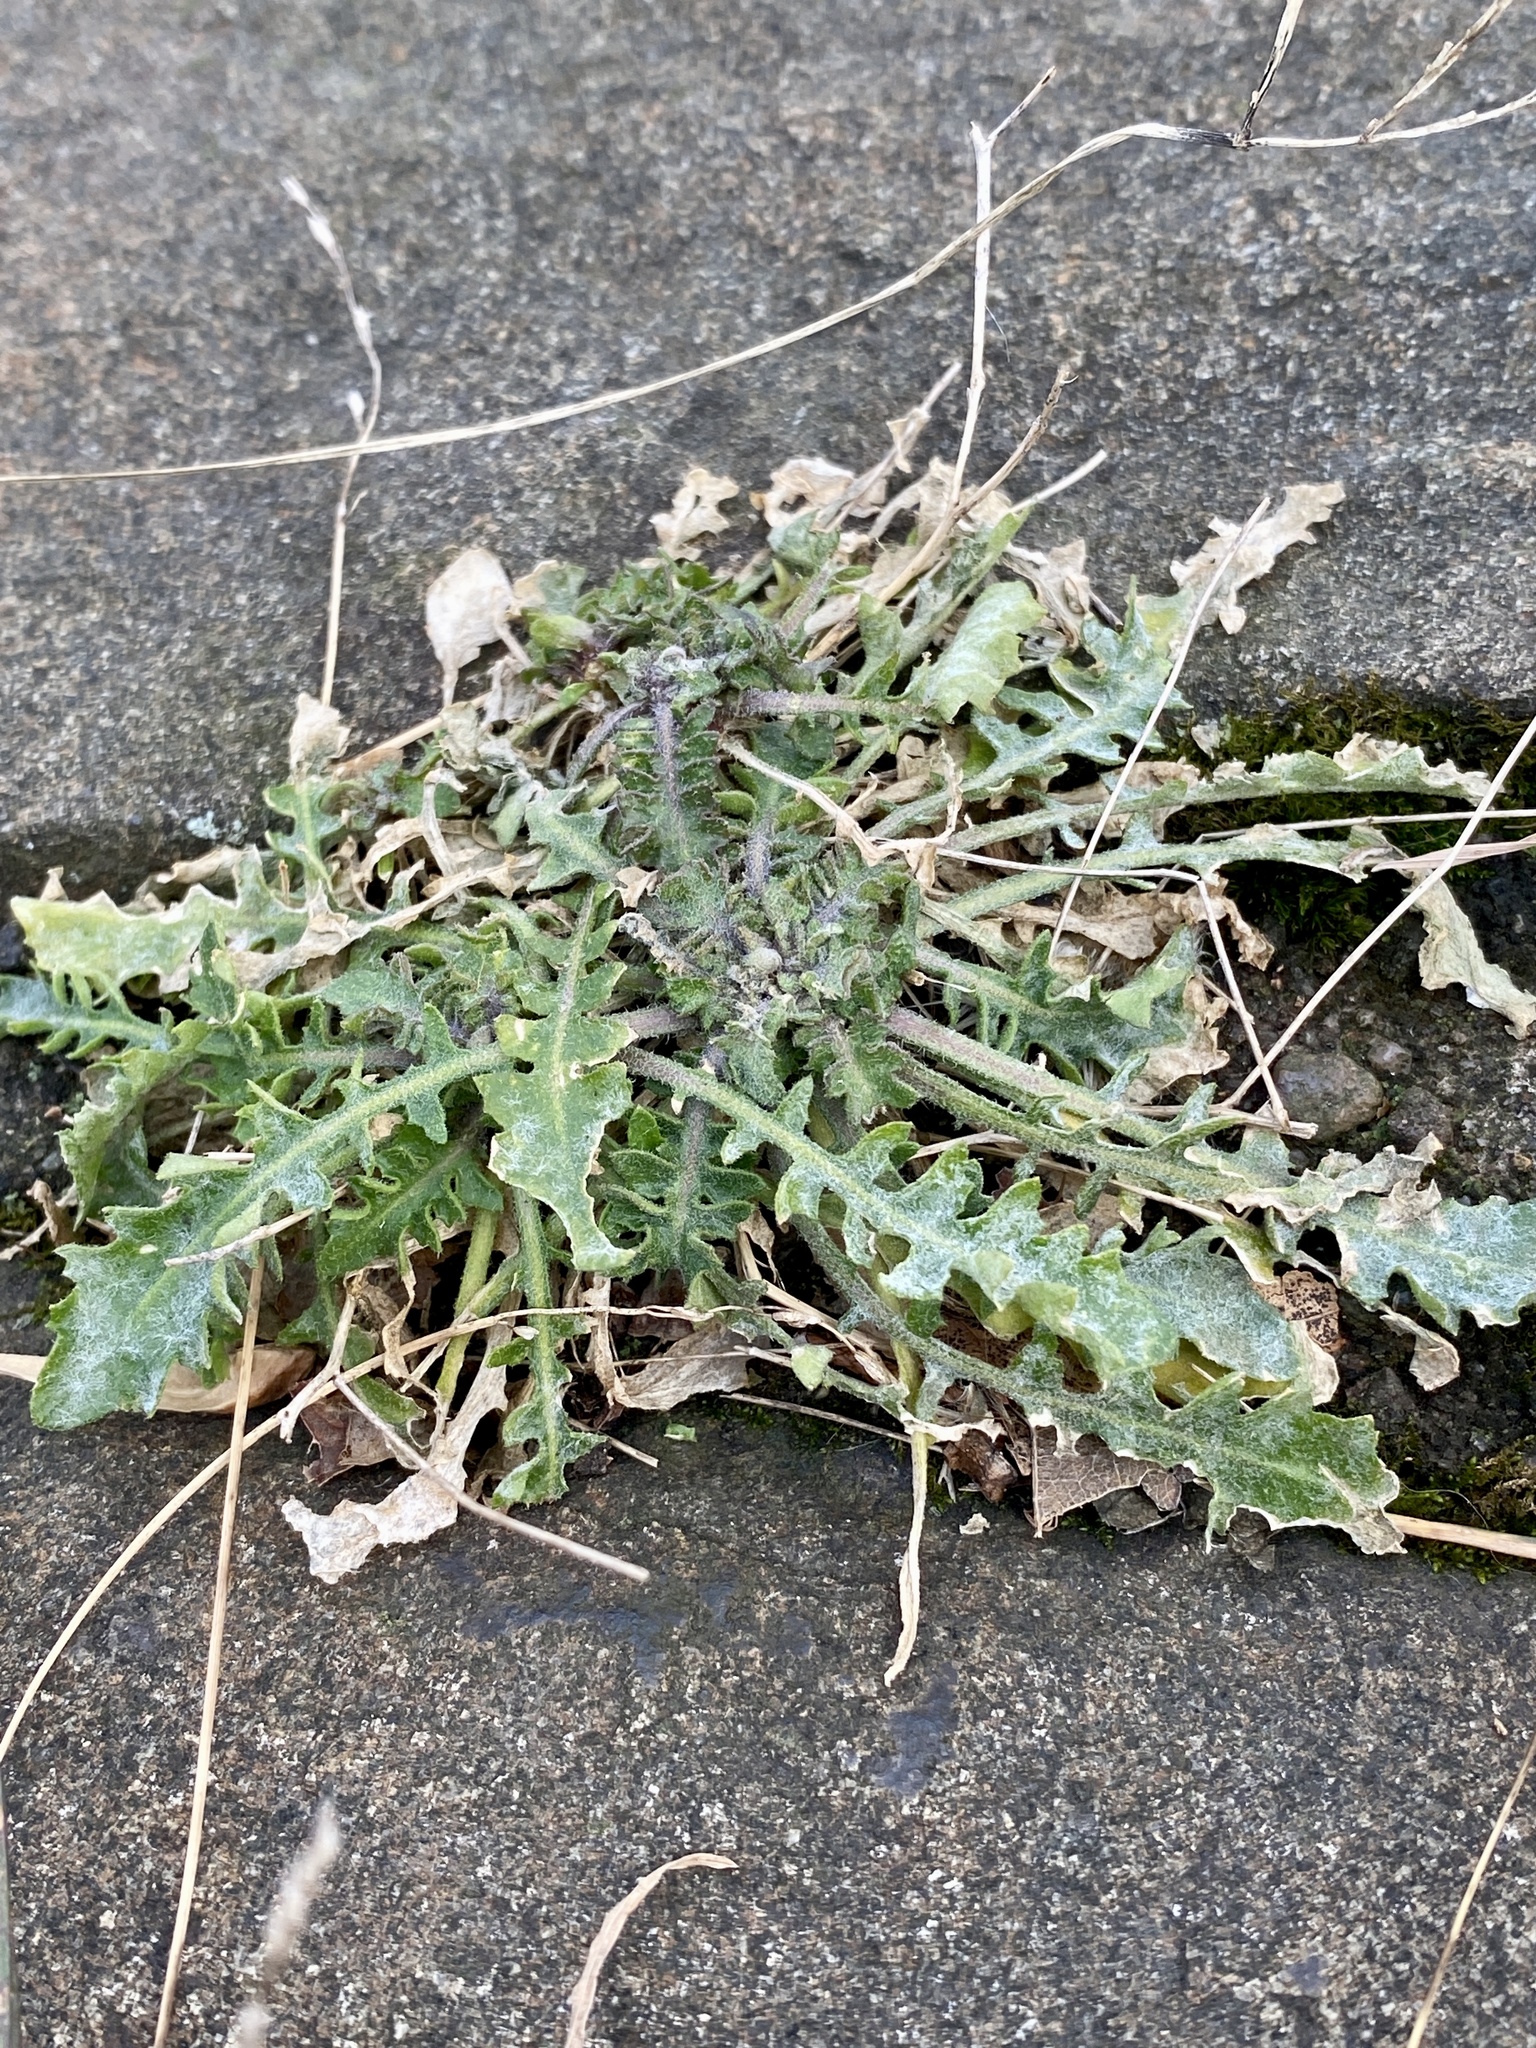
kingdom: Plantae
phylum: Tracheophyta
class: Magnoliopsida
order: Brassicales
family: Brassicaceae
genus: Arabidopsis
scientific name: Arabidopsis lyrata
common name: Lyrate rockcress
